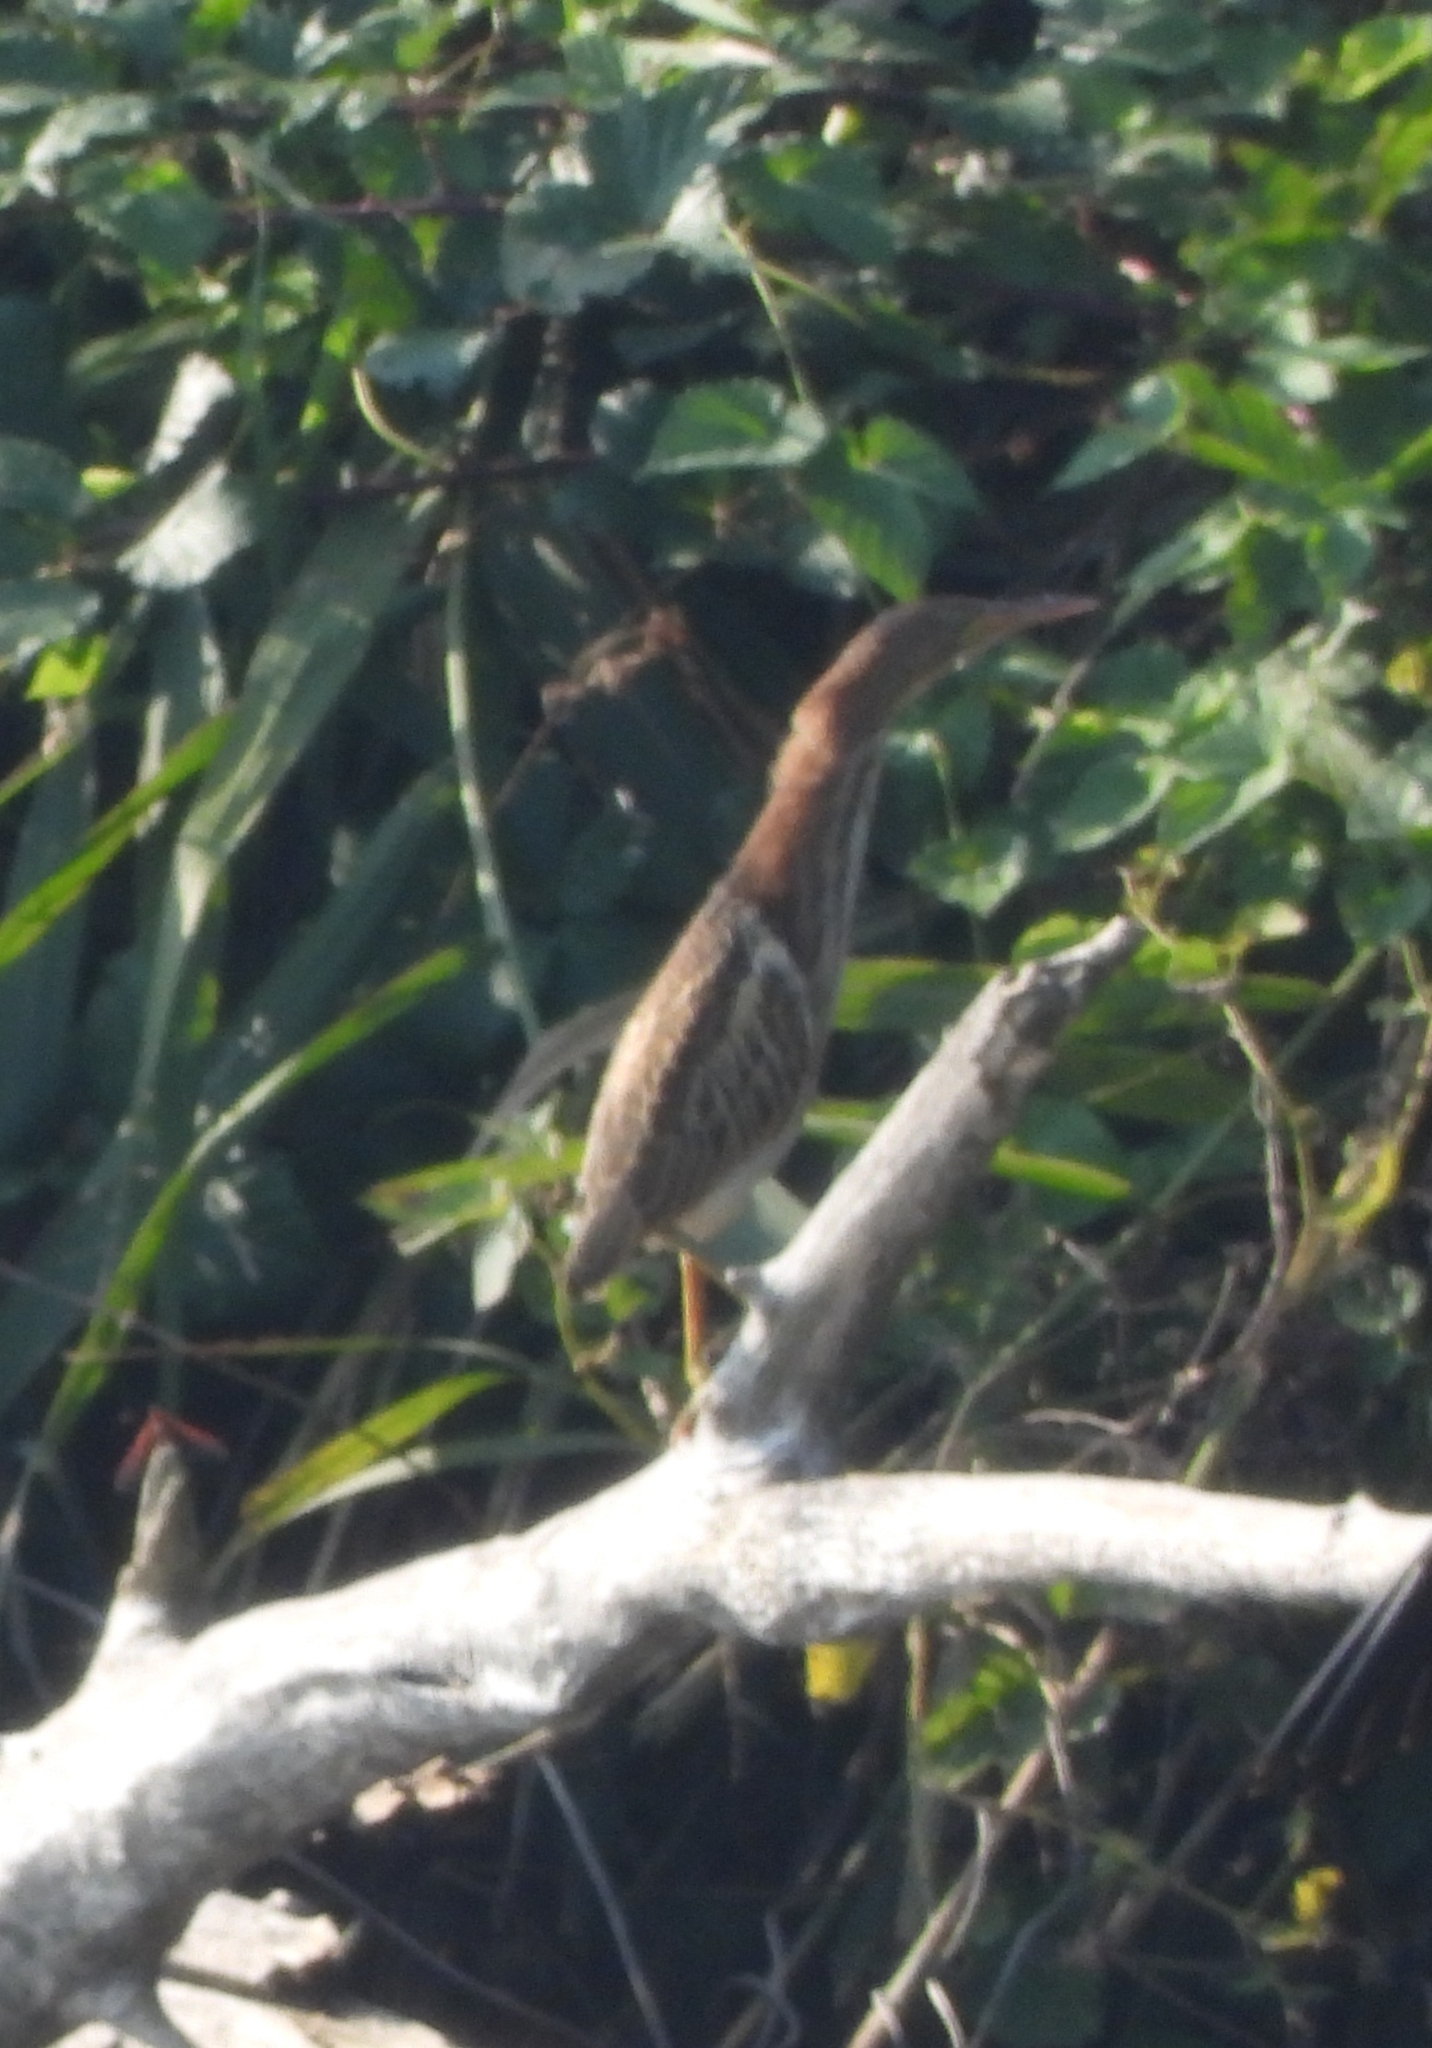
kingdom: Animalia
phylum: Chordata
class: Aves
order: Pelecaniformes
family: Ardeidae
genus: Ixobrychus
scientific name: Ixobrychus minutus
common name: Little bittern
